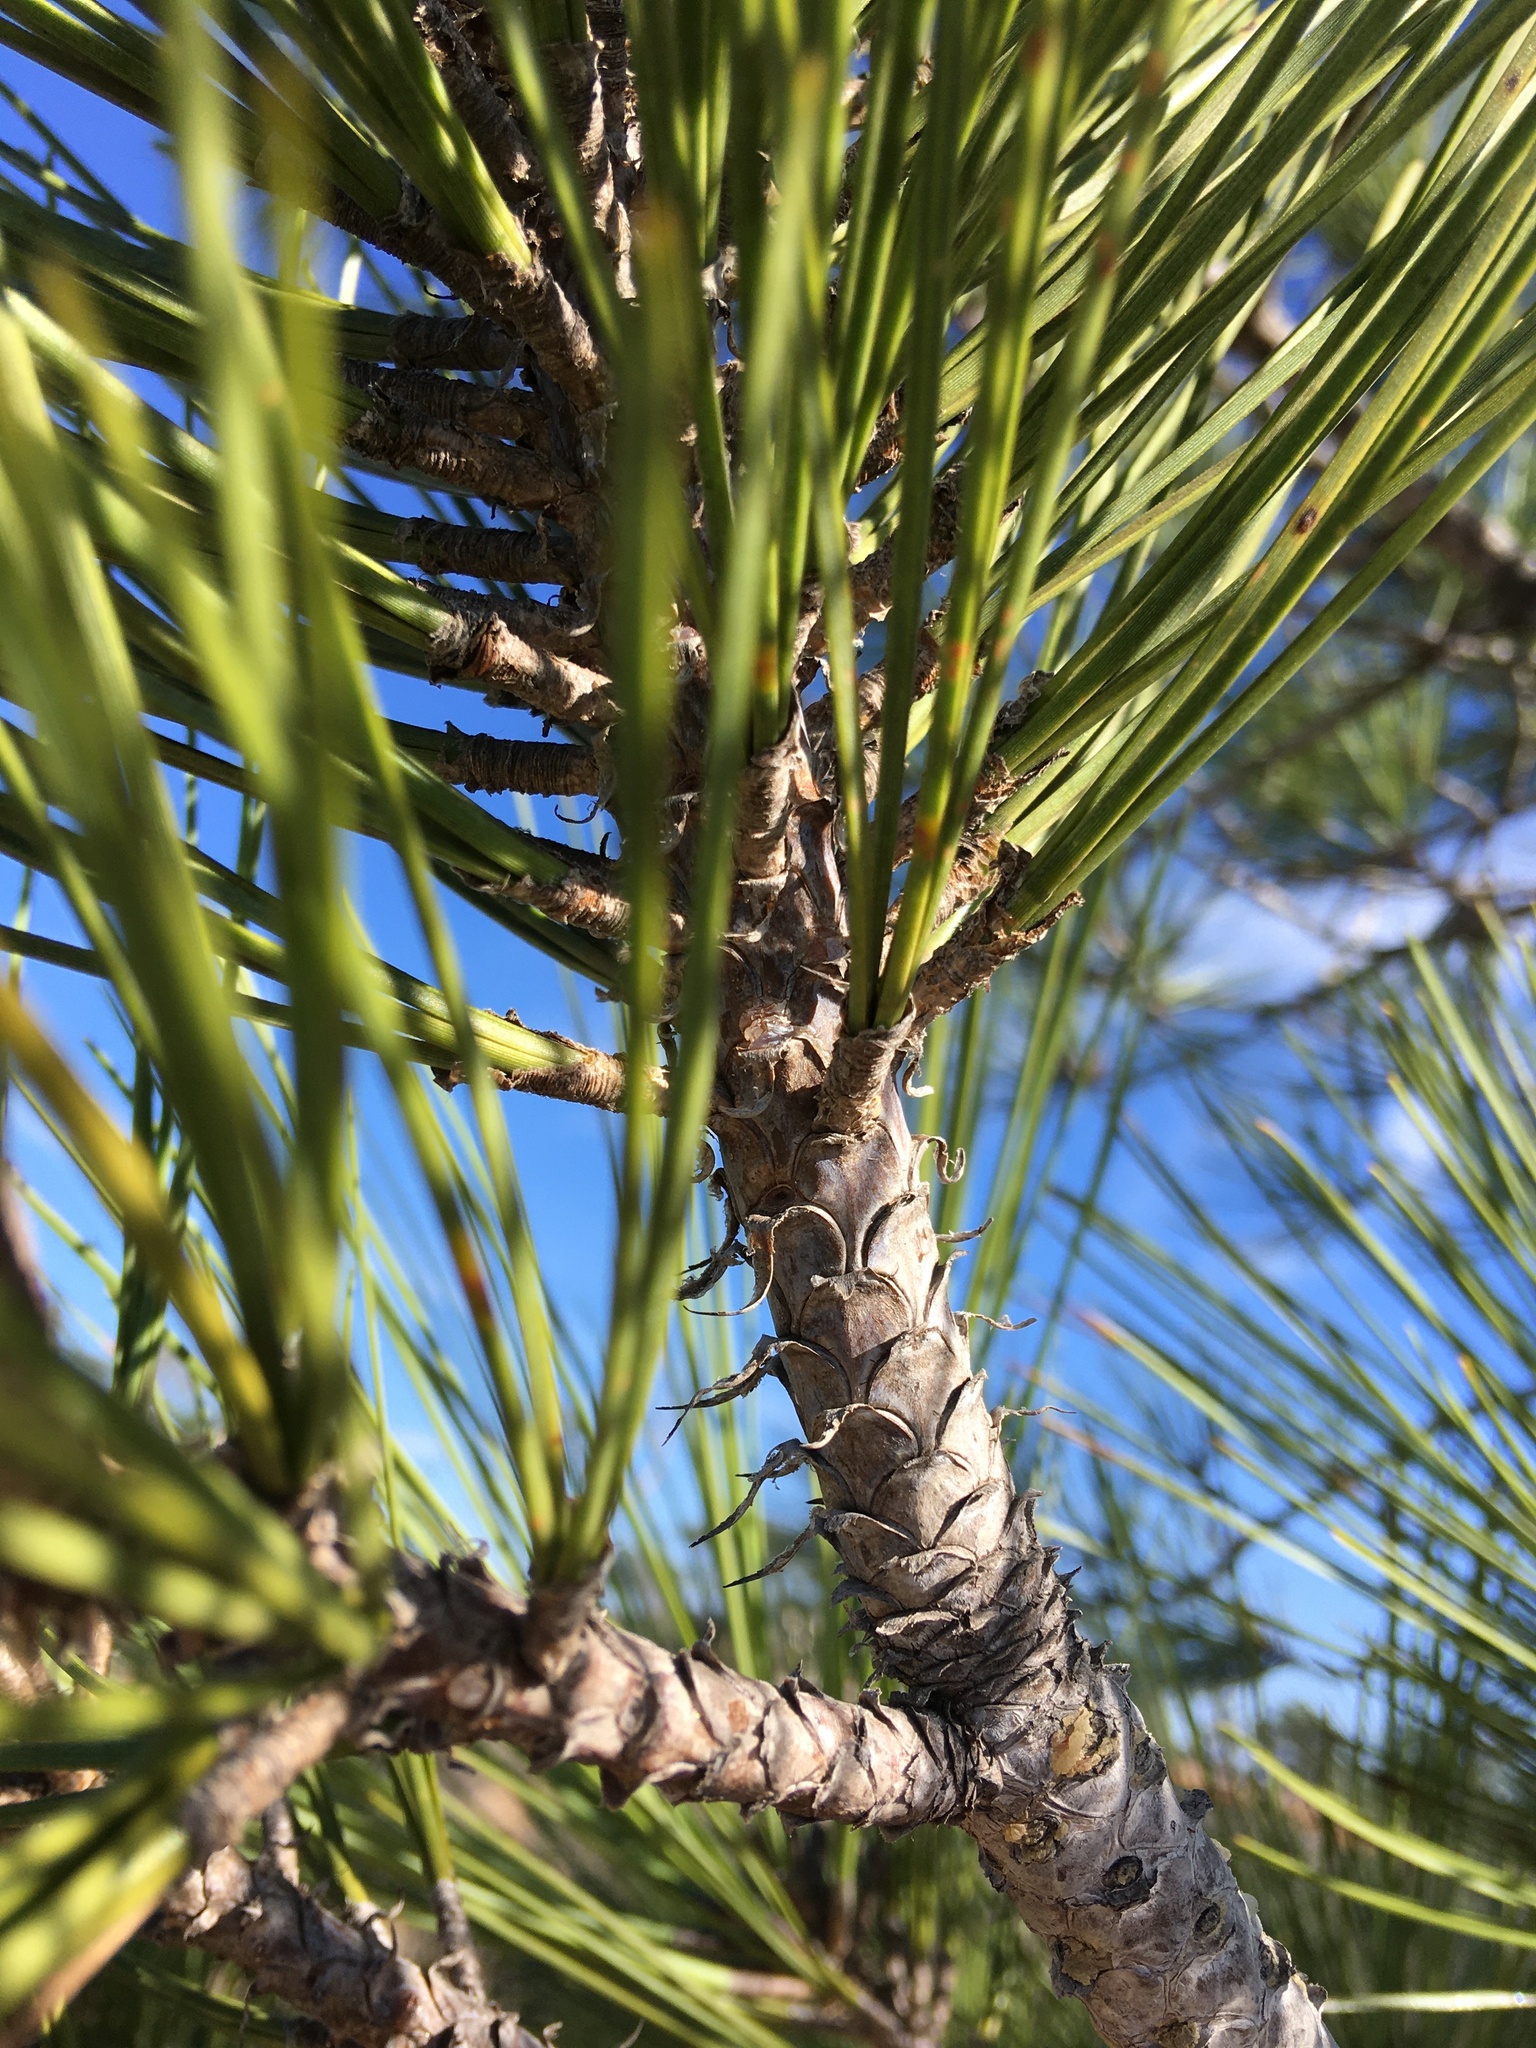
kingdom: Plantae
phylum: Tracheophyta
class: Pinopsida
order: Pinales
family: Pinaceae
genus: Pinus
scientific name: Pinus torreyana
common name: Torrey pine
